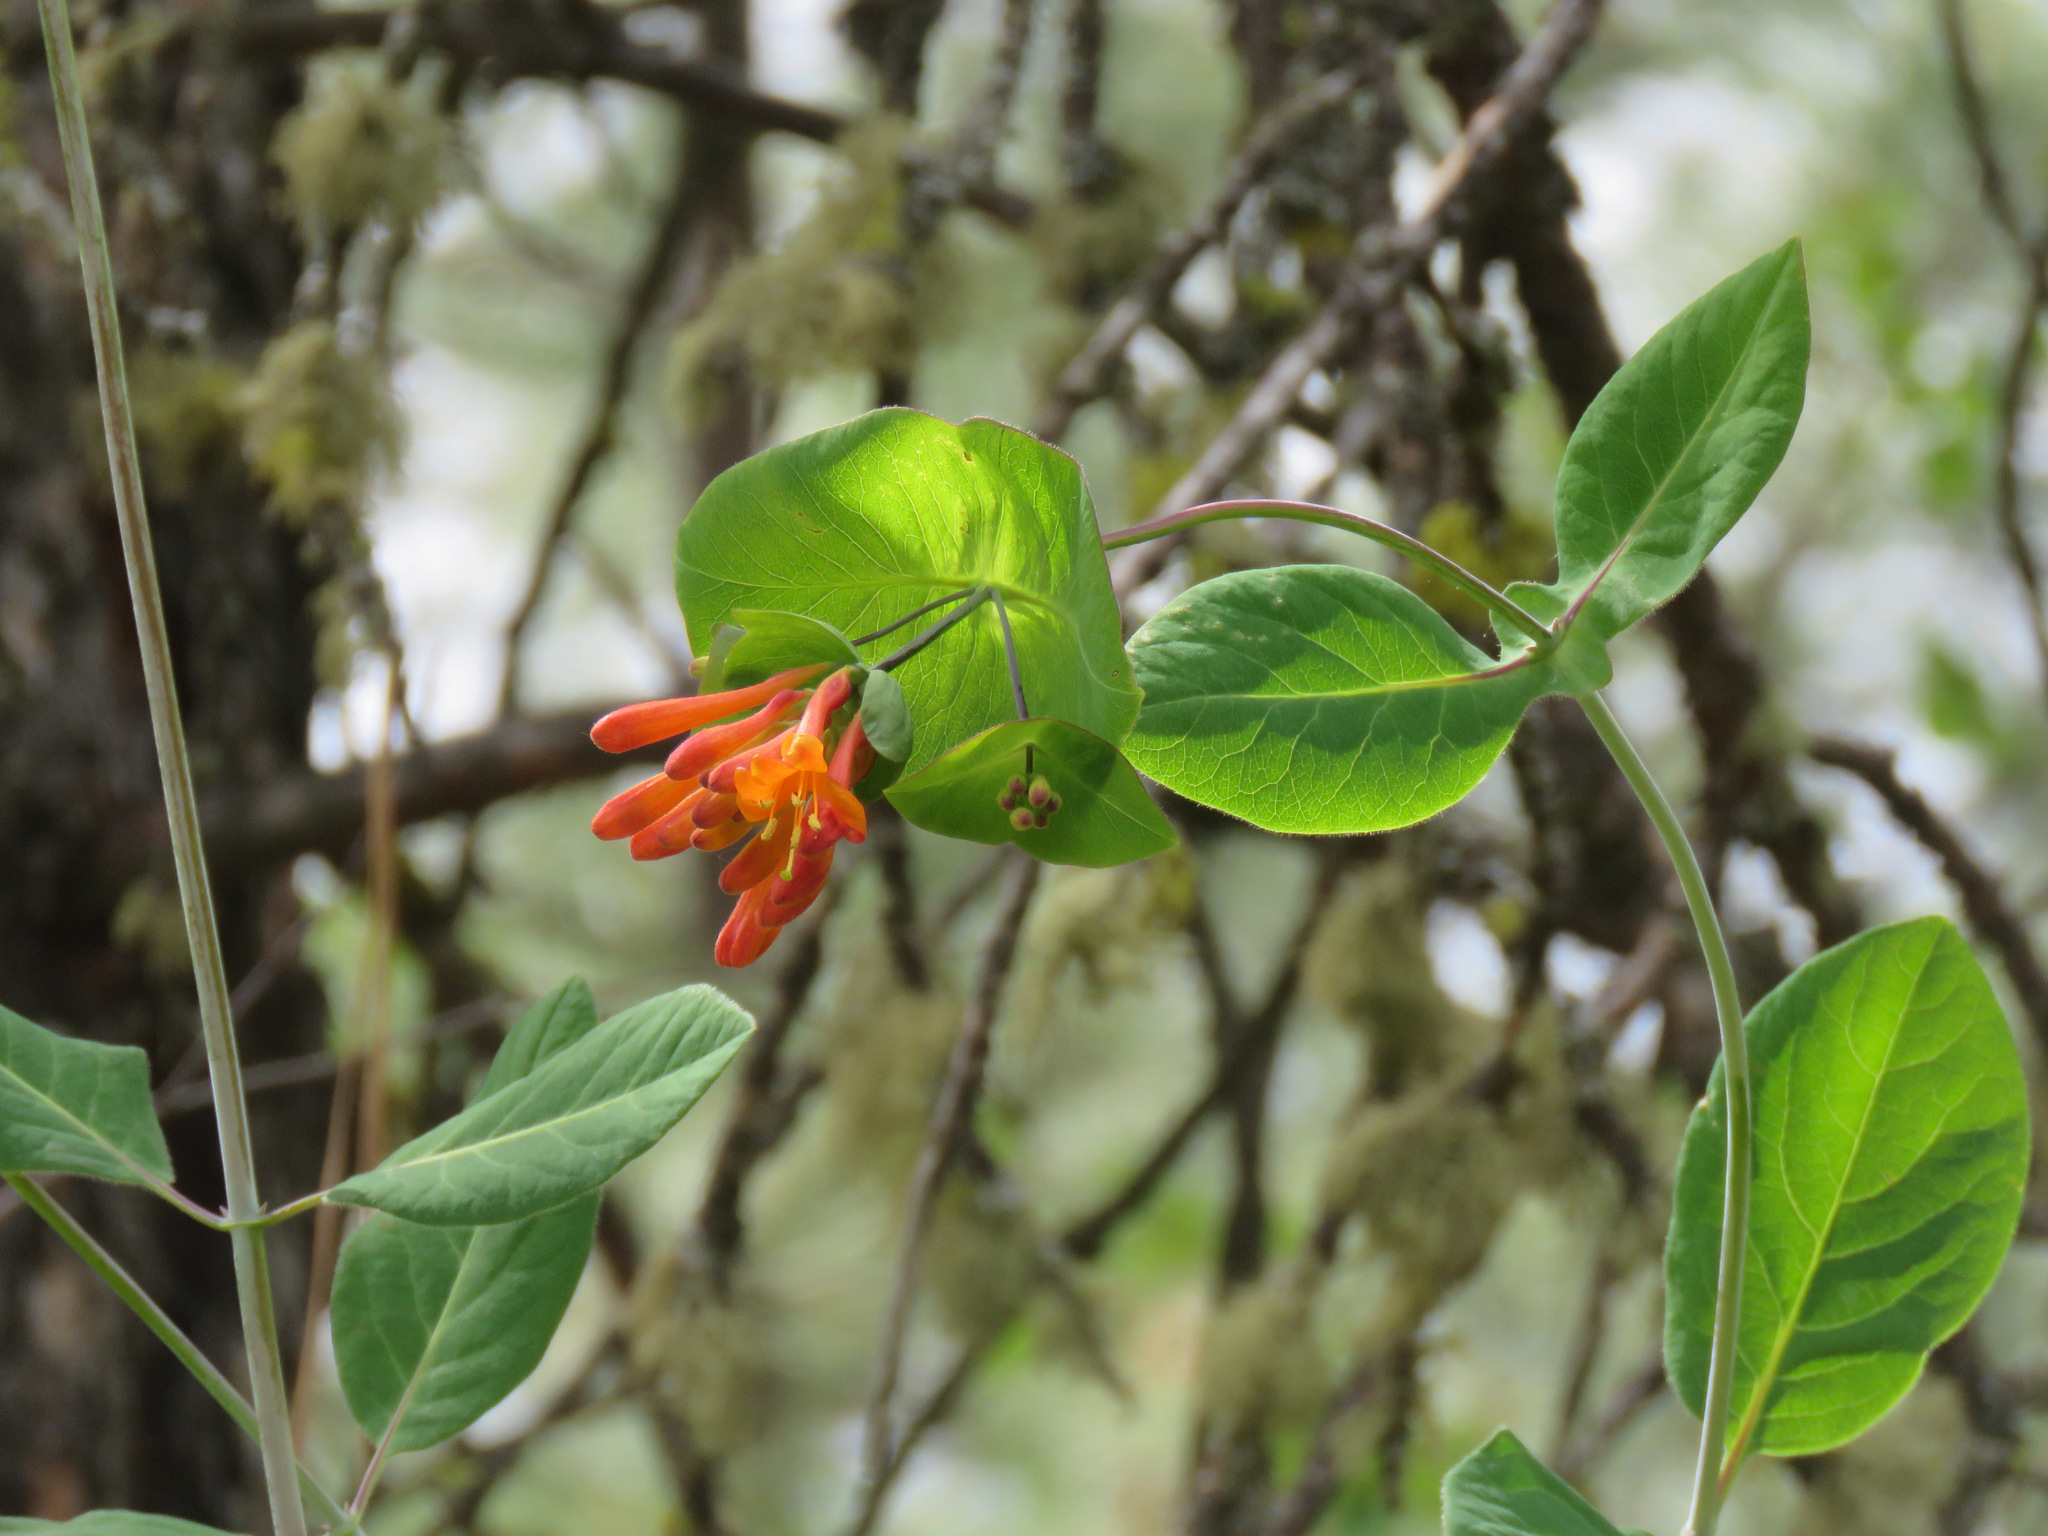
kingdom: Plantae
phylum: Tracheophyta
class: Magnoliopsida
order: Dipsacales
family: Caprifoliaceae
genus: Lonicera
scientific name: Lonicera ciliosa
